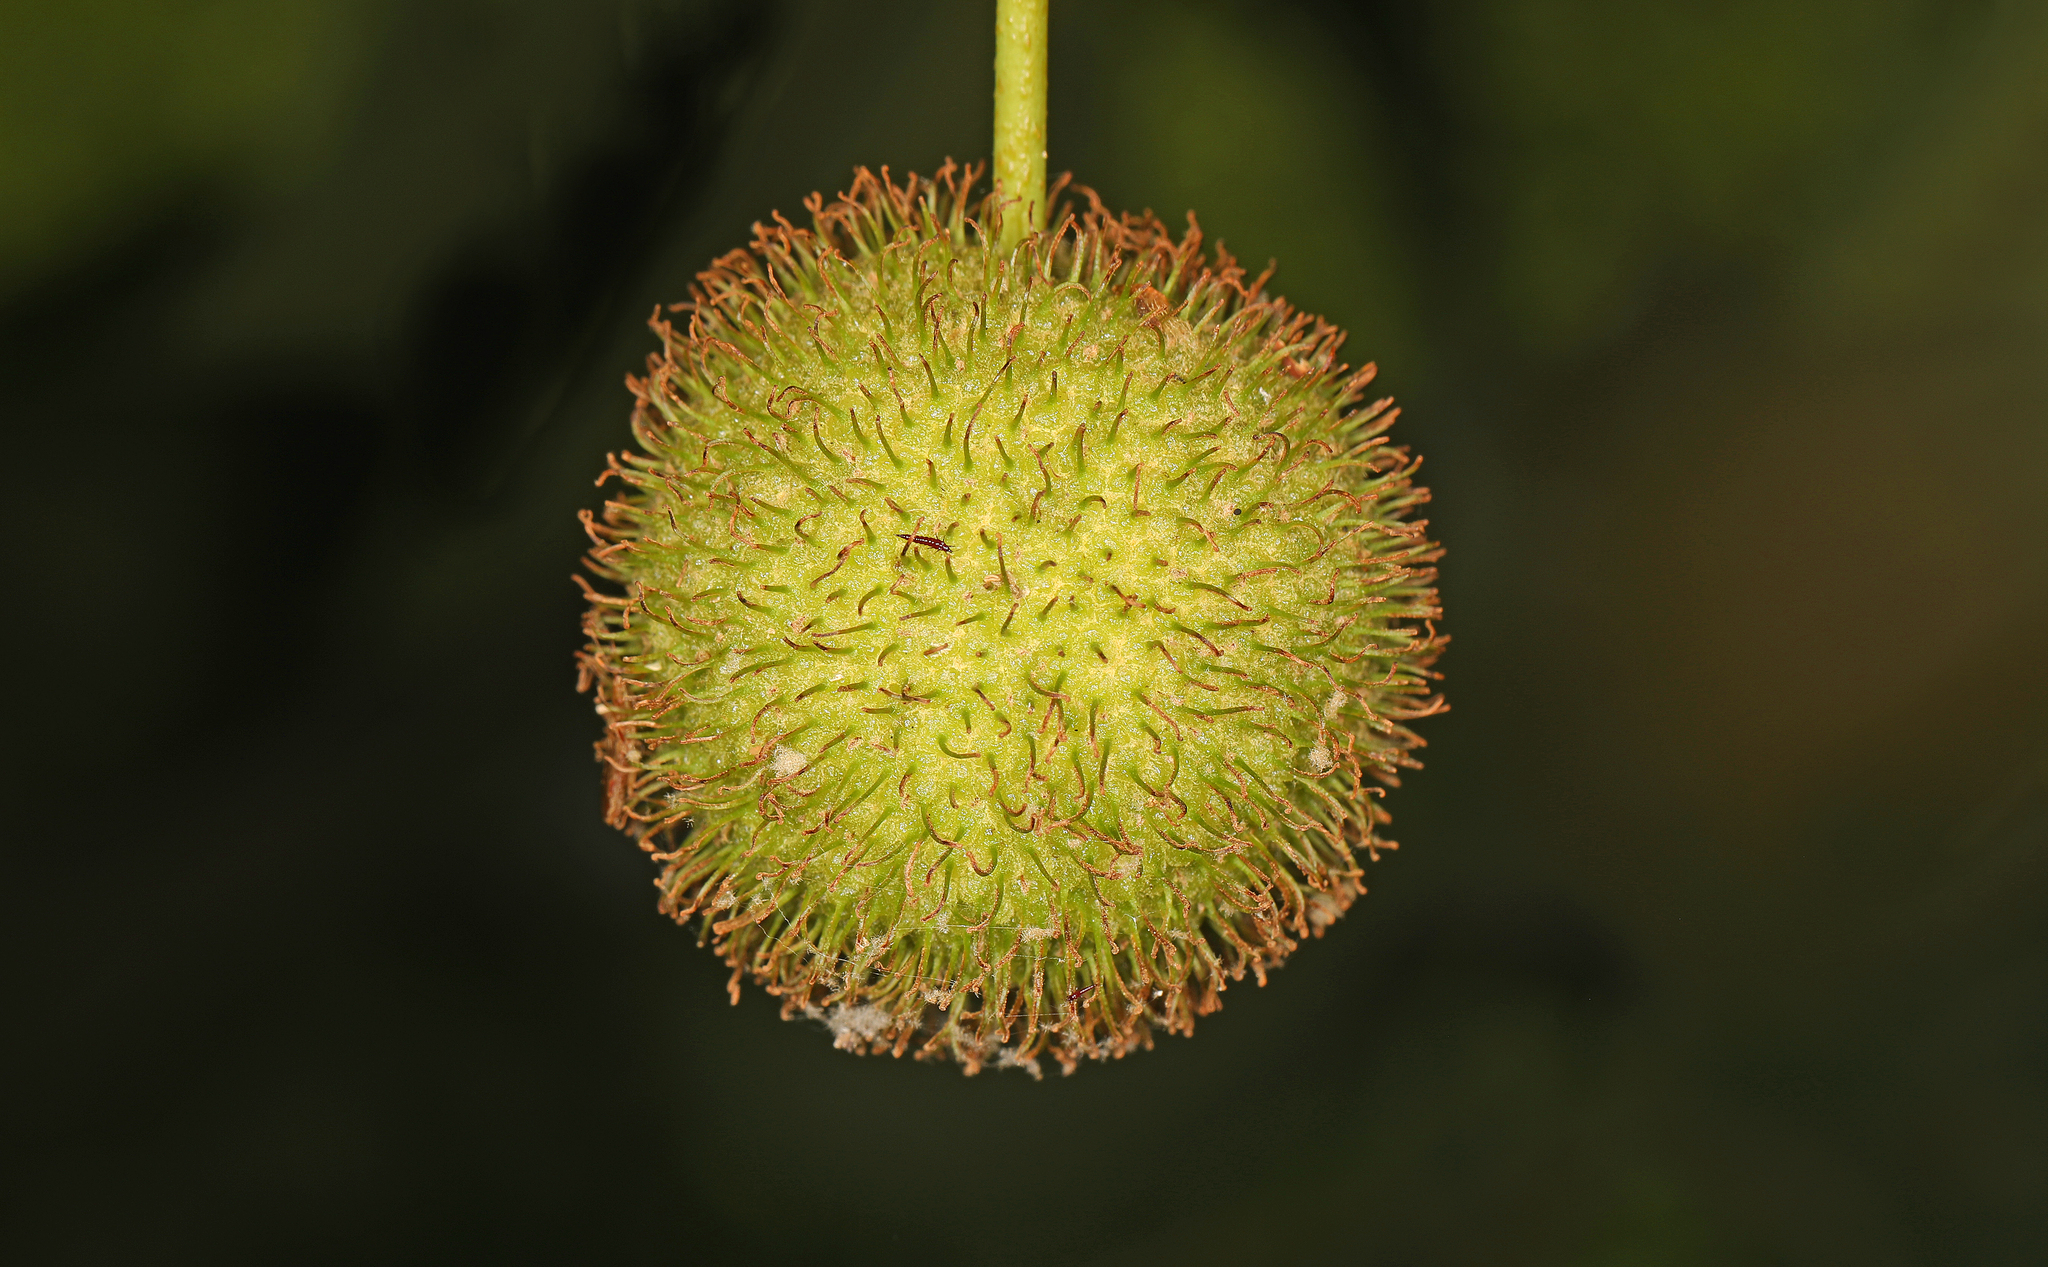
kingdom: Plantae
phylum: Tracheophyta
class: Magnoliopsida
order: Proteales
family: Platanaceae
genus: Platanus
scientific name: Platanus occidentalis
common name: American sycamore
